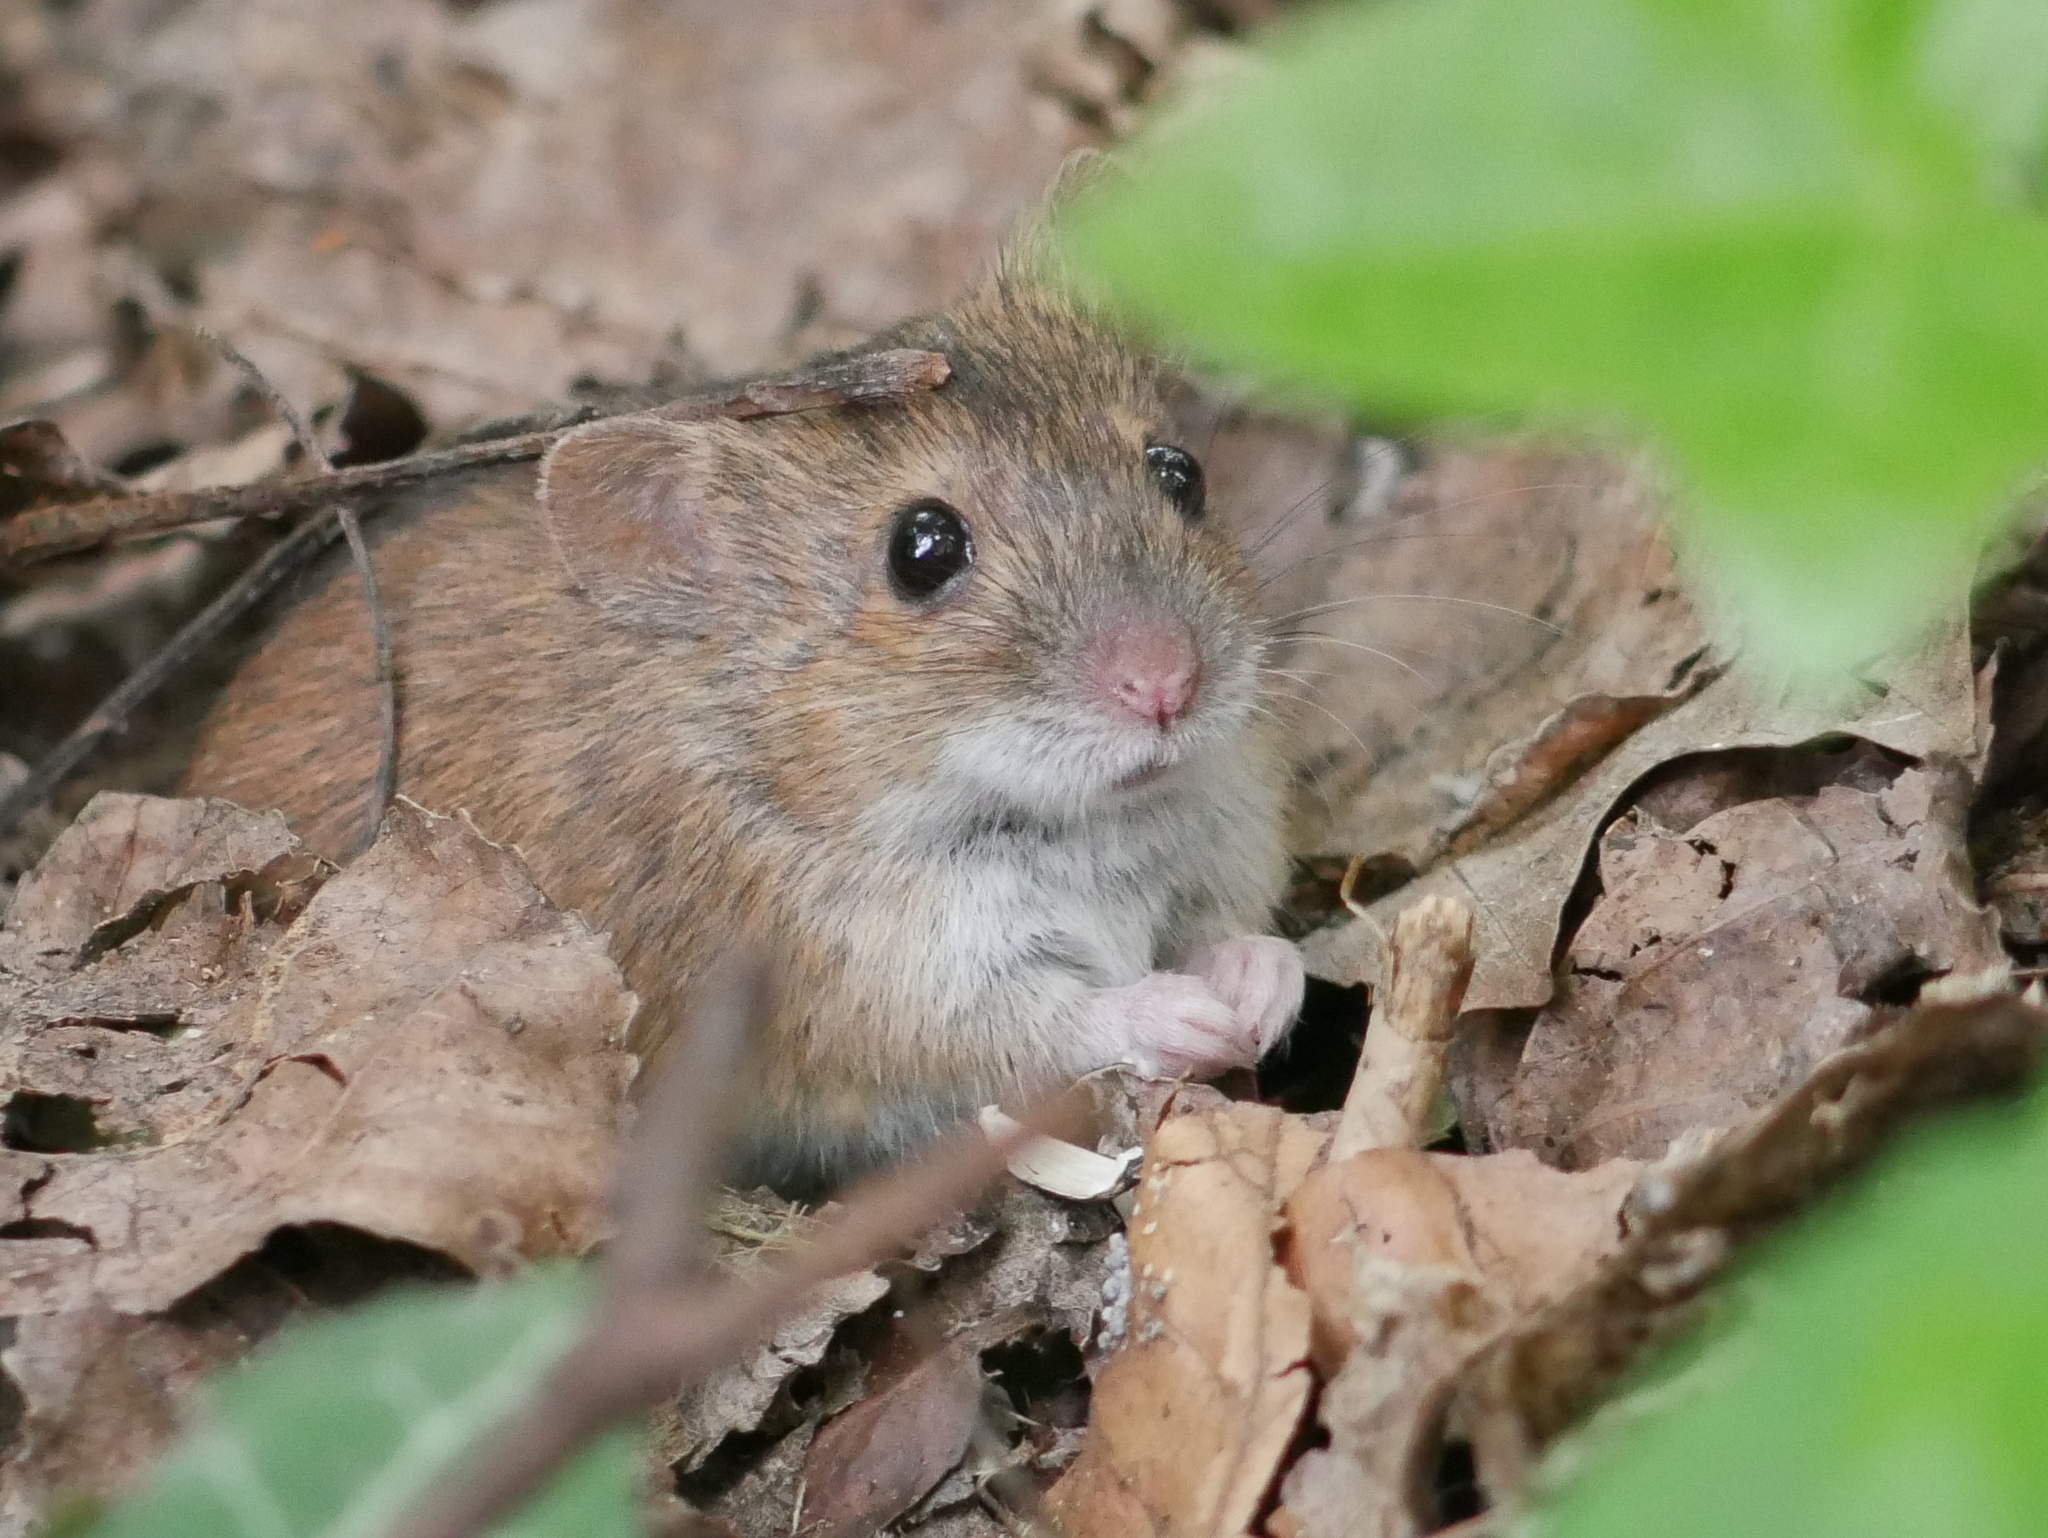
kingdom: Animalia
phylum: Chordata
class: Mammalia
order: Rodentia
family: Muridae
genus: Apodemus
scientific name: Apodemus agrarius
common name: Striped field mouse
